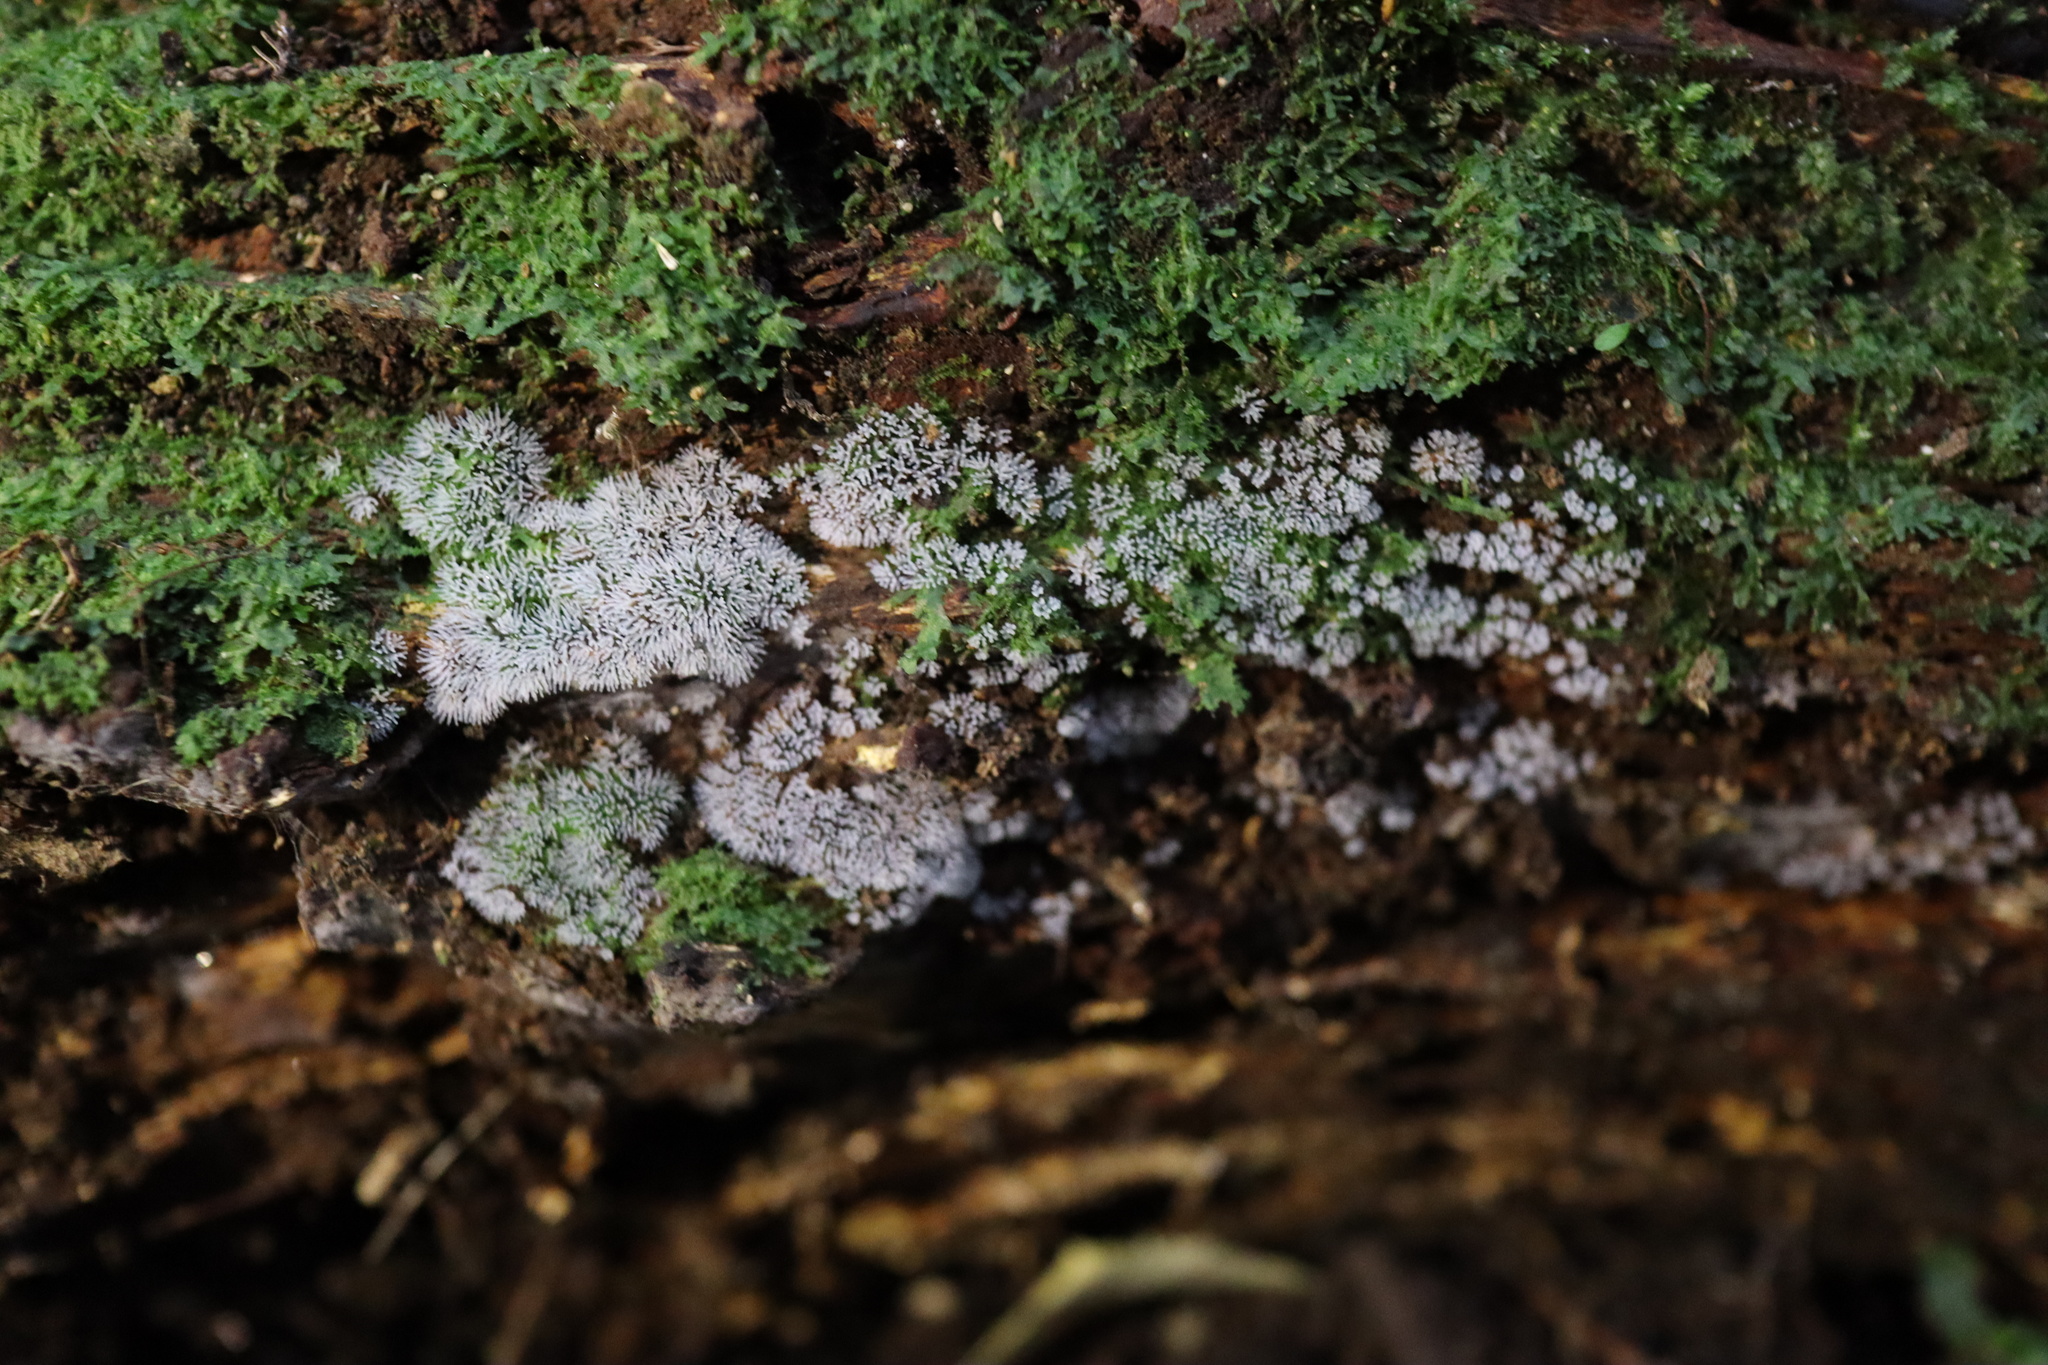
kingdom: Protozoa
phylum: Mycetozoa
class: Protosteliomycetes
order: Ceratiomyxales
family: Ceratiomyxaceae
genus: Ceratiomyxa
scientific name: Ceratiomyxa fruticulosa
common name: Honeycomb coral slime mold
